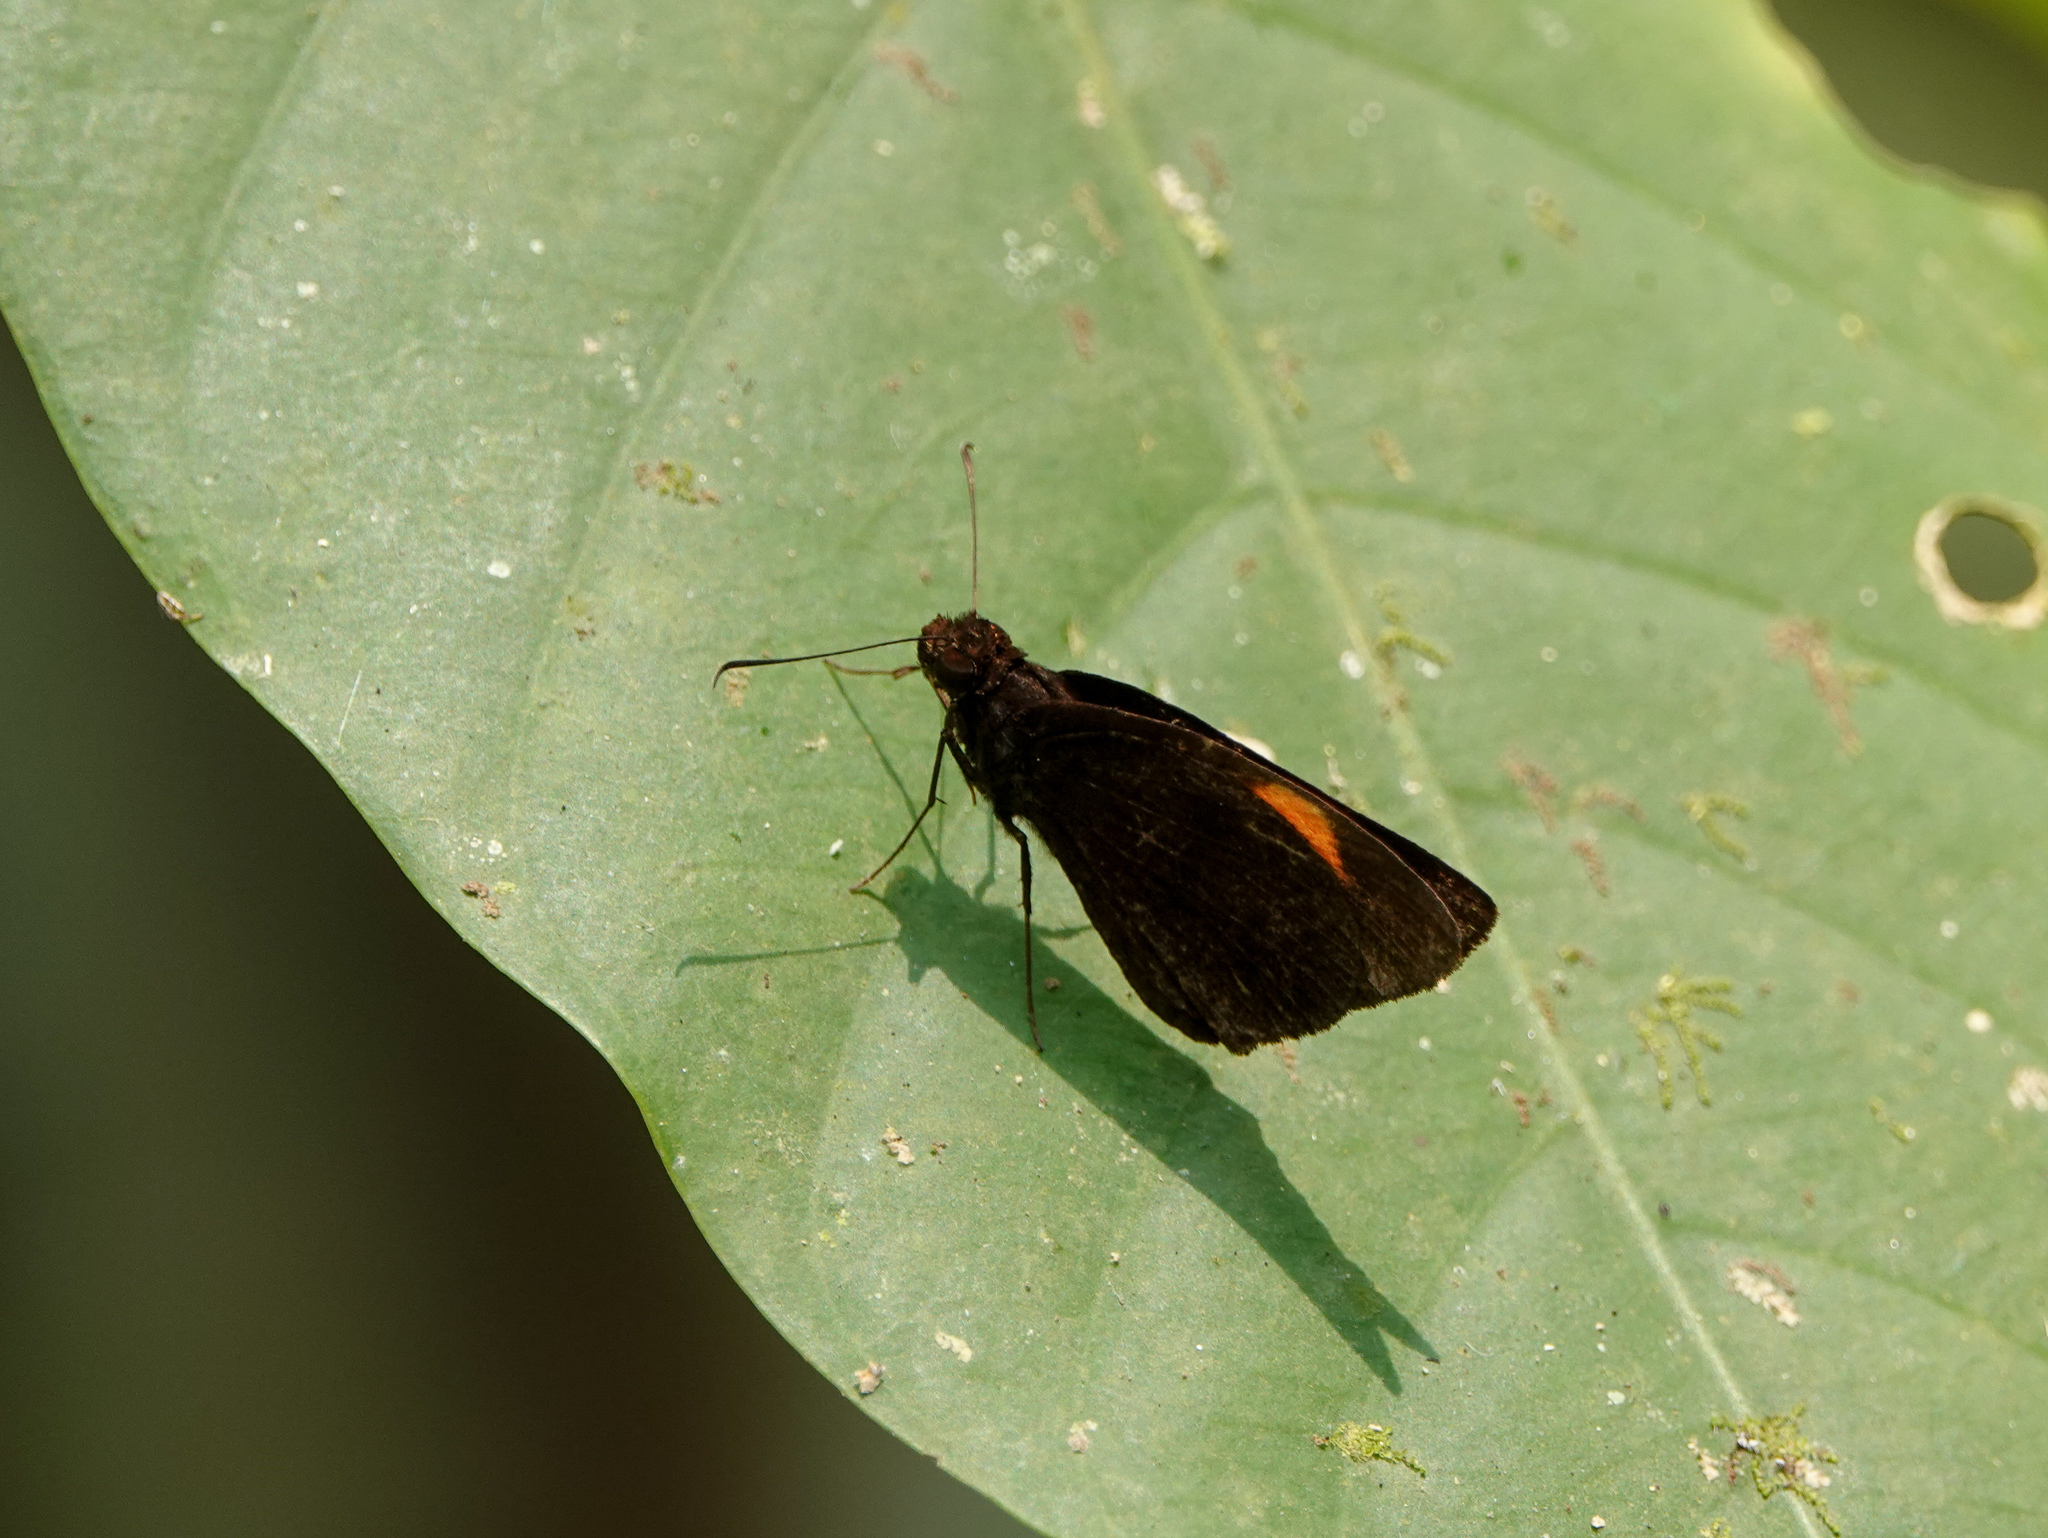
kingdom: Animalia
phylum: Arthropoda
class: Insecta
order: Lepidoptera
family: Hesperiidae
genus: Koruthaialos
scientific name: Koruthaialos sindu
